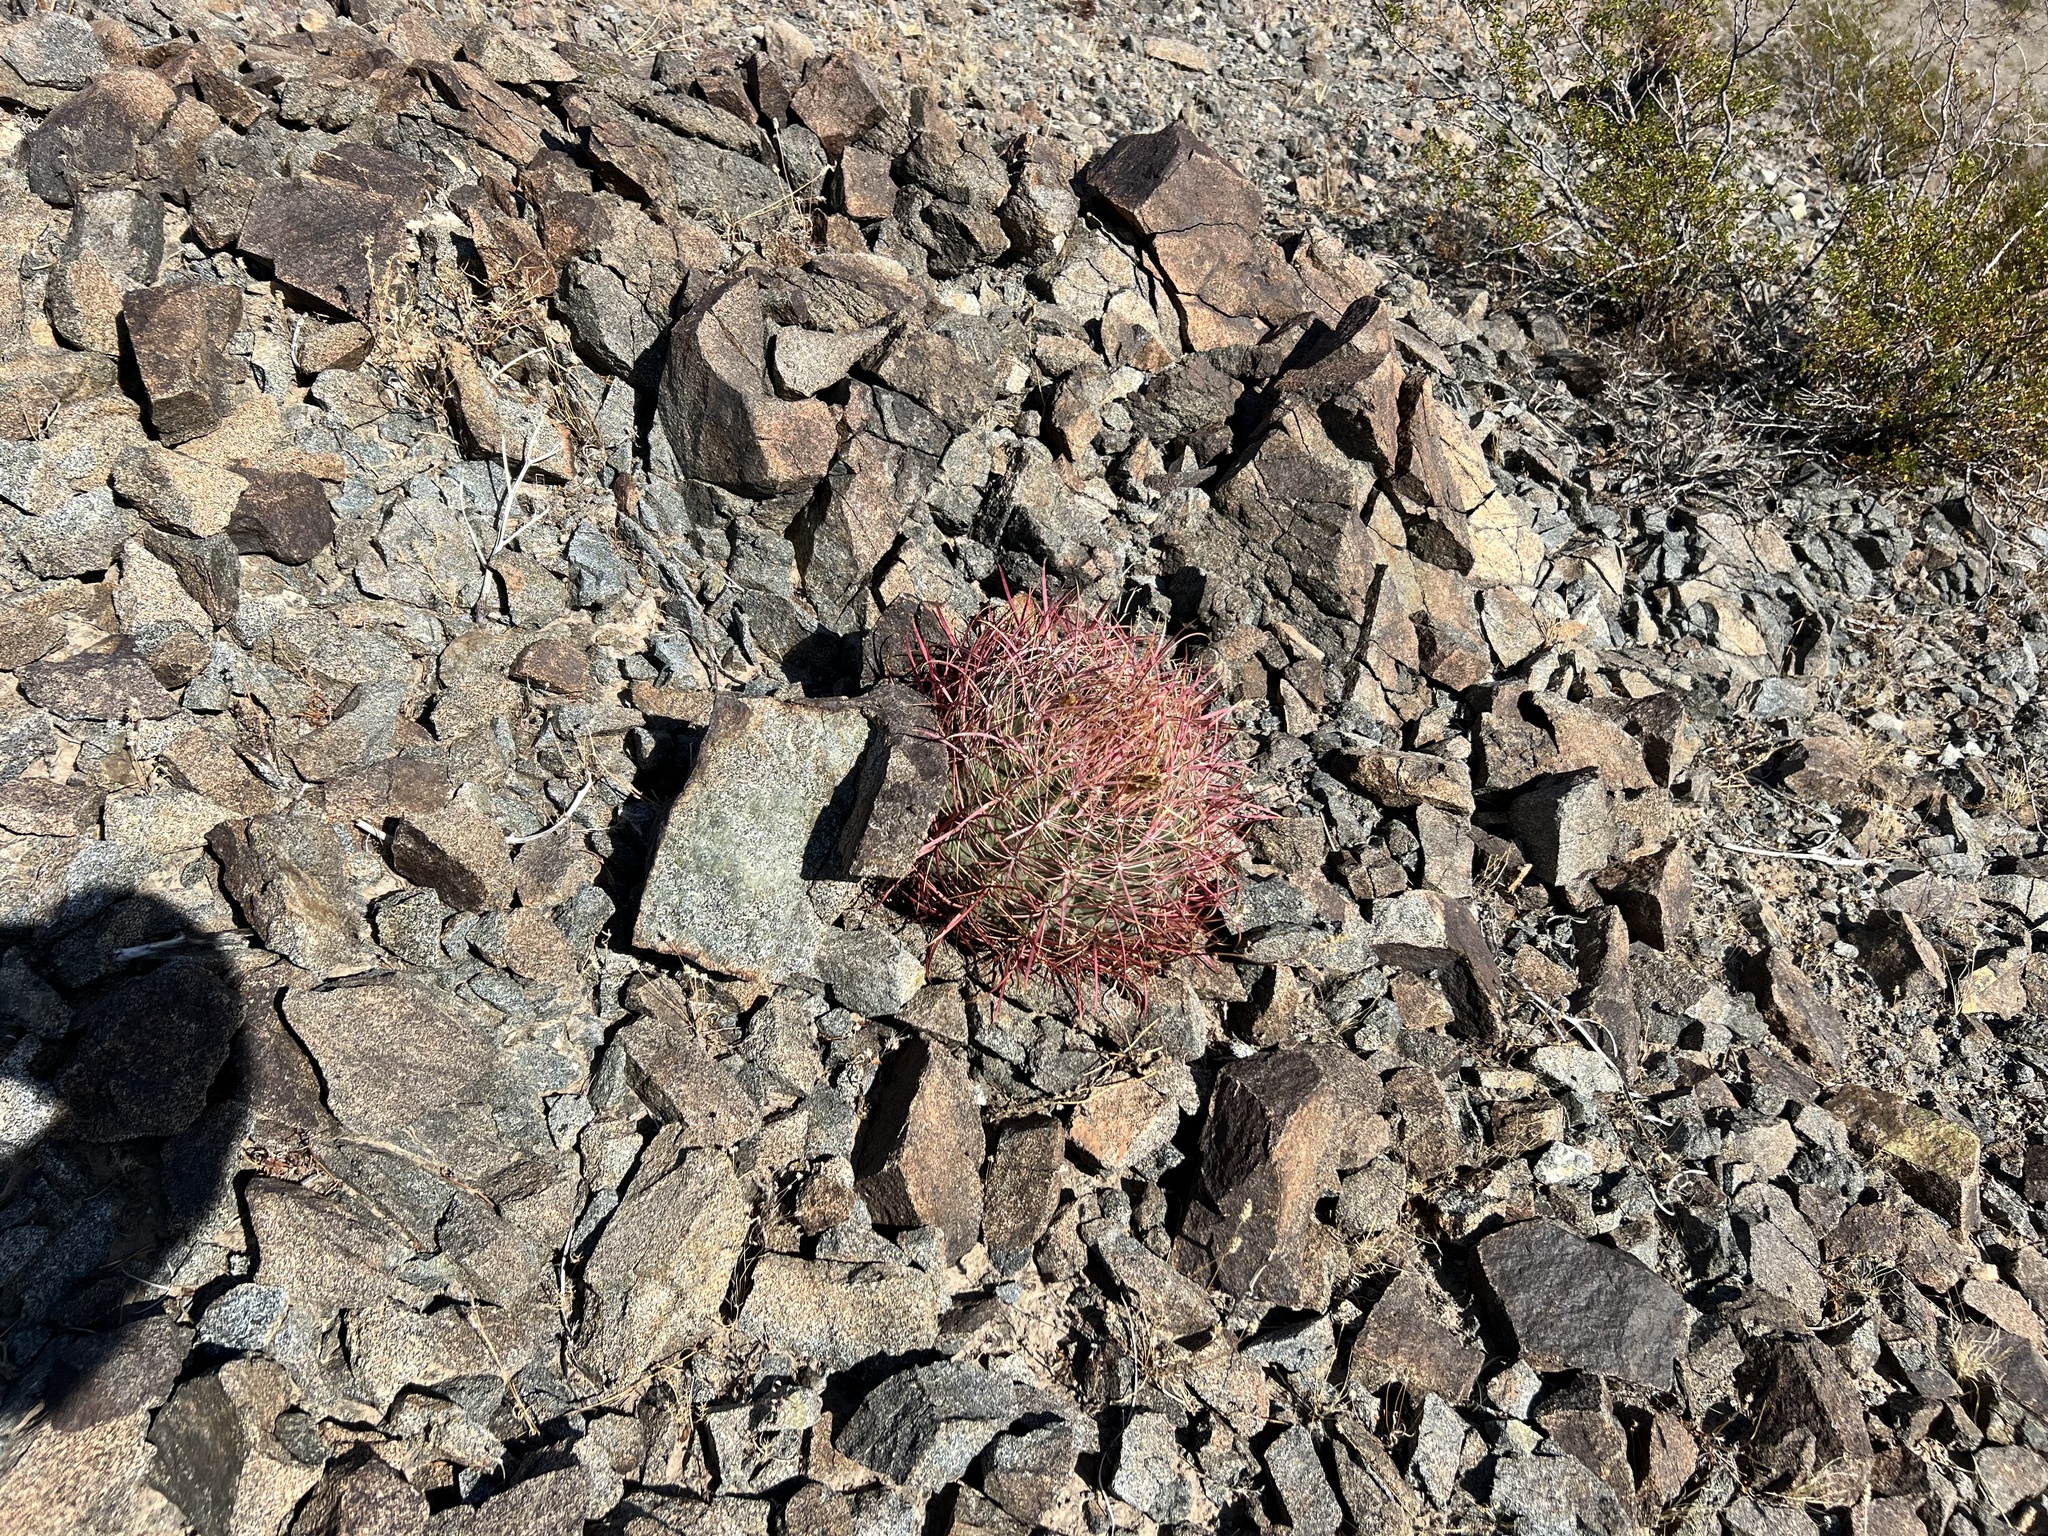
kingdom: Plantae
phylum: Tracheophyta
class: Magnoliopsida
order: Caryophyllales
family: Cactaceae
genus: Ferocactus
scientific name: Ferocactus cylindraceus
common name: California barrel cactus
